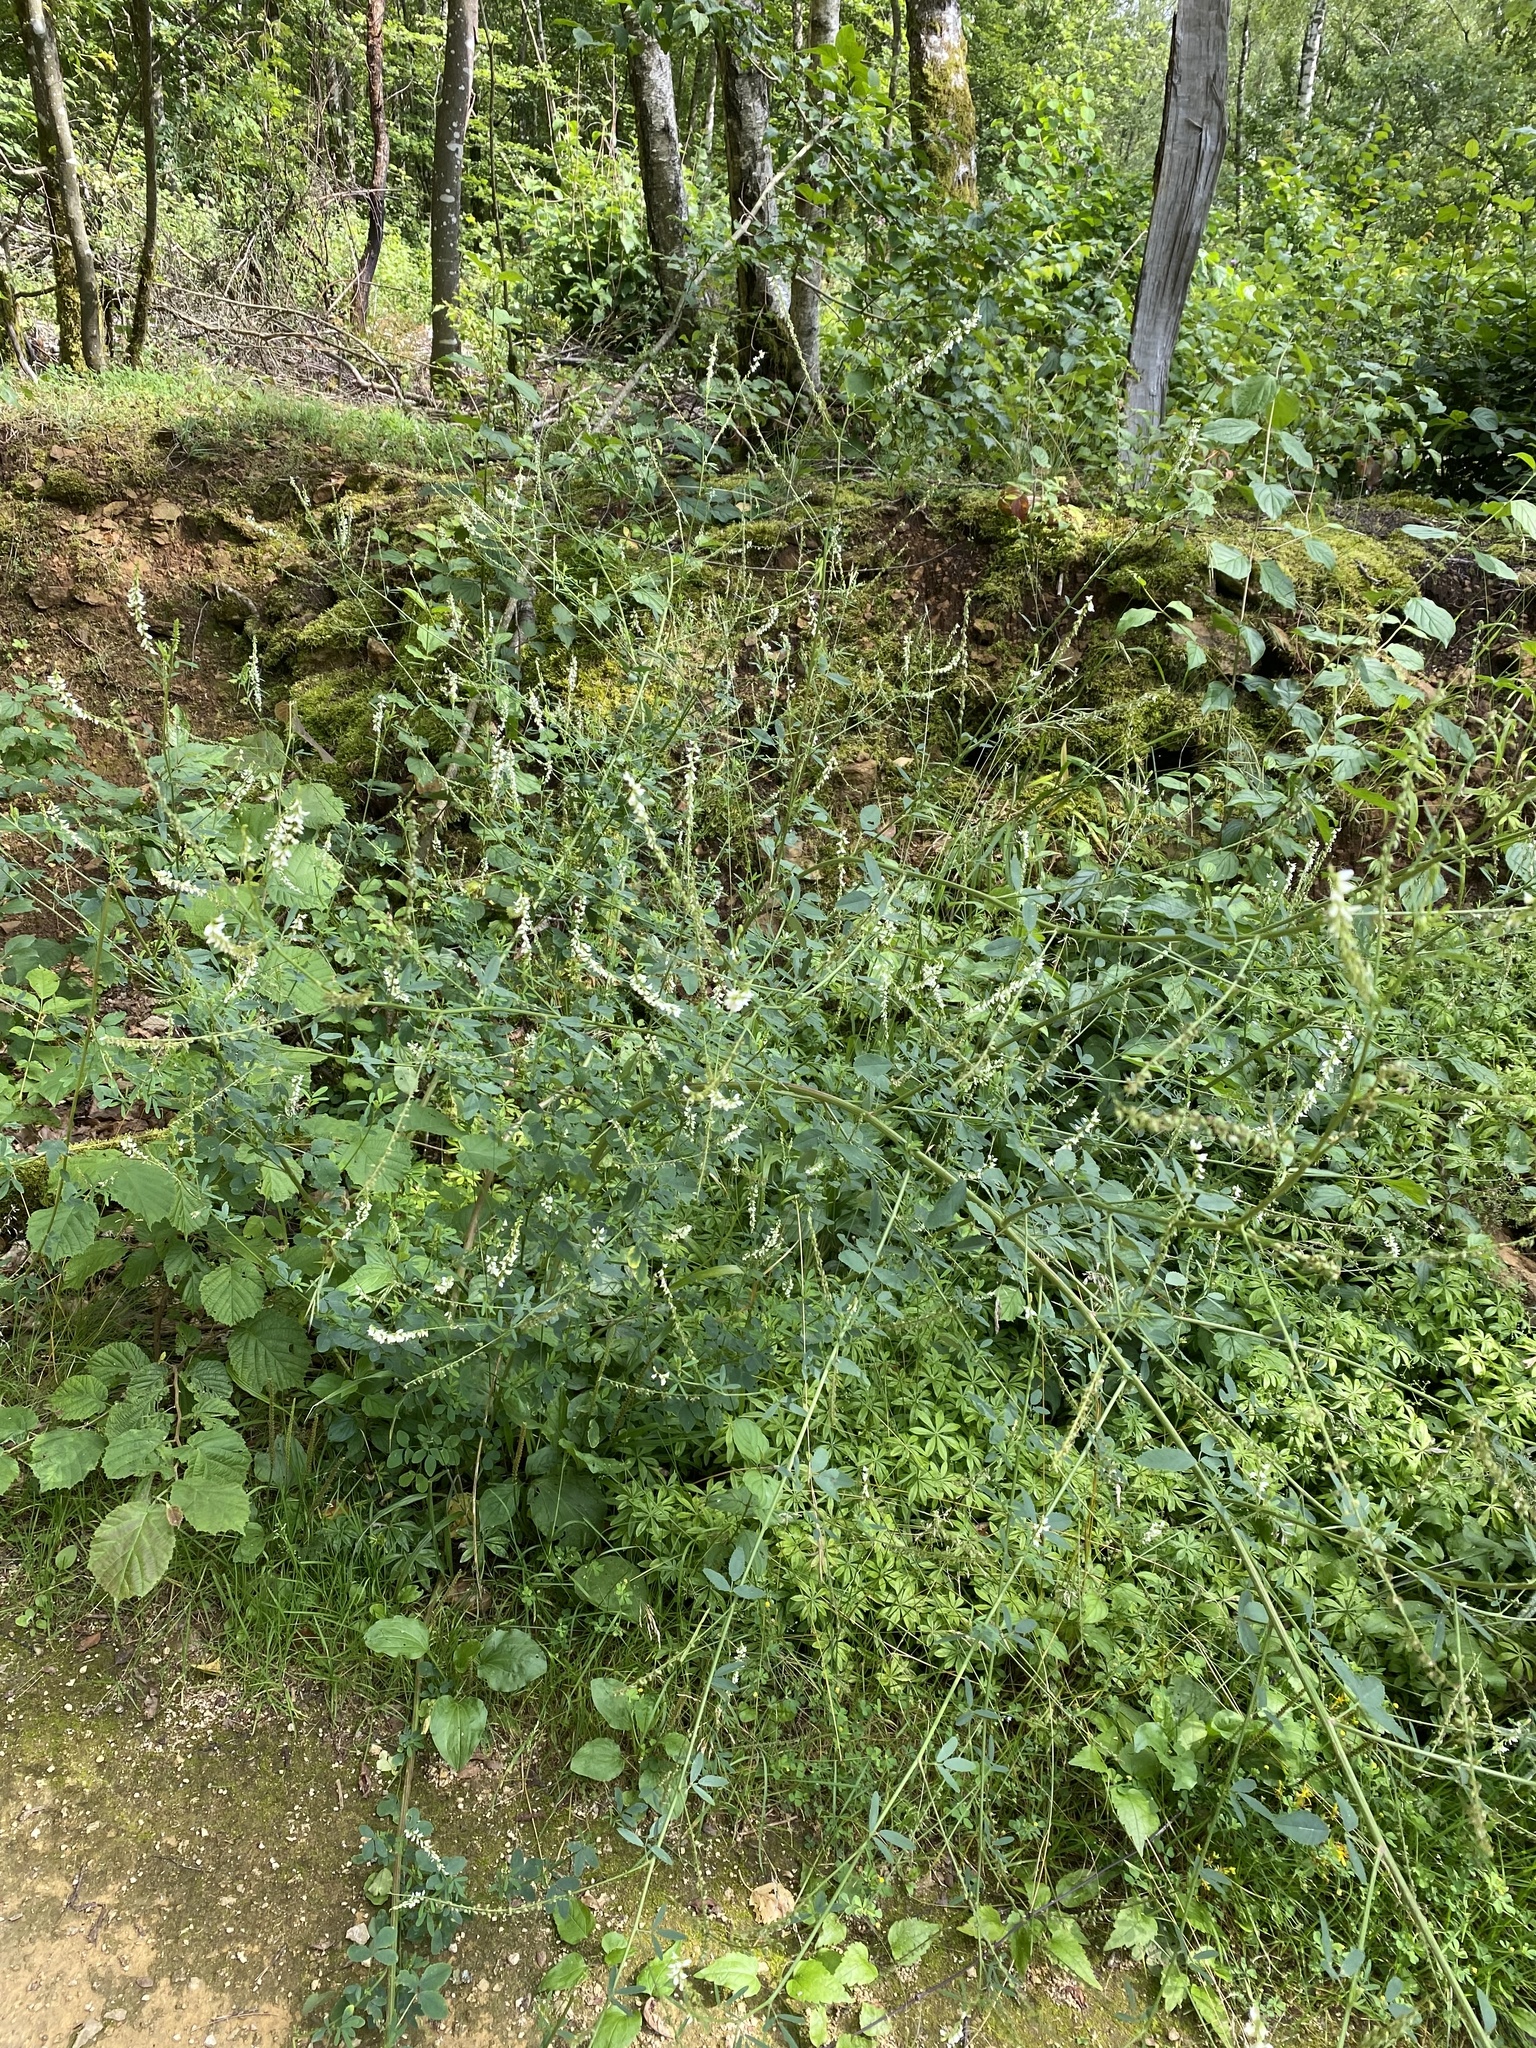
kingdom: Plantae
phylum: Tracheophyta
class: Magnoliopsida
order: Fabales
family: Fabaceae
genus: Melilotus
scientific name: Melilotus albus
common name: White melilot
